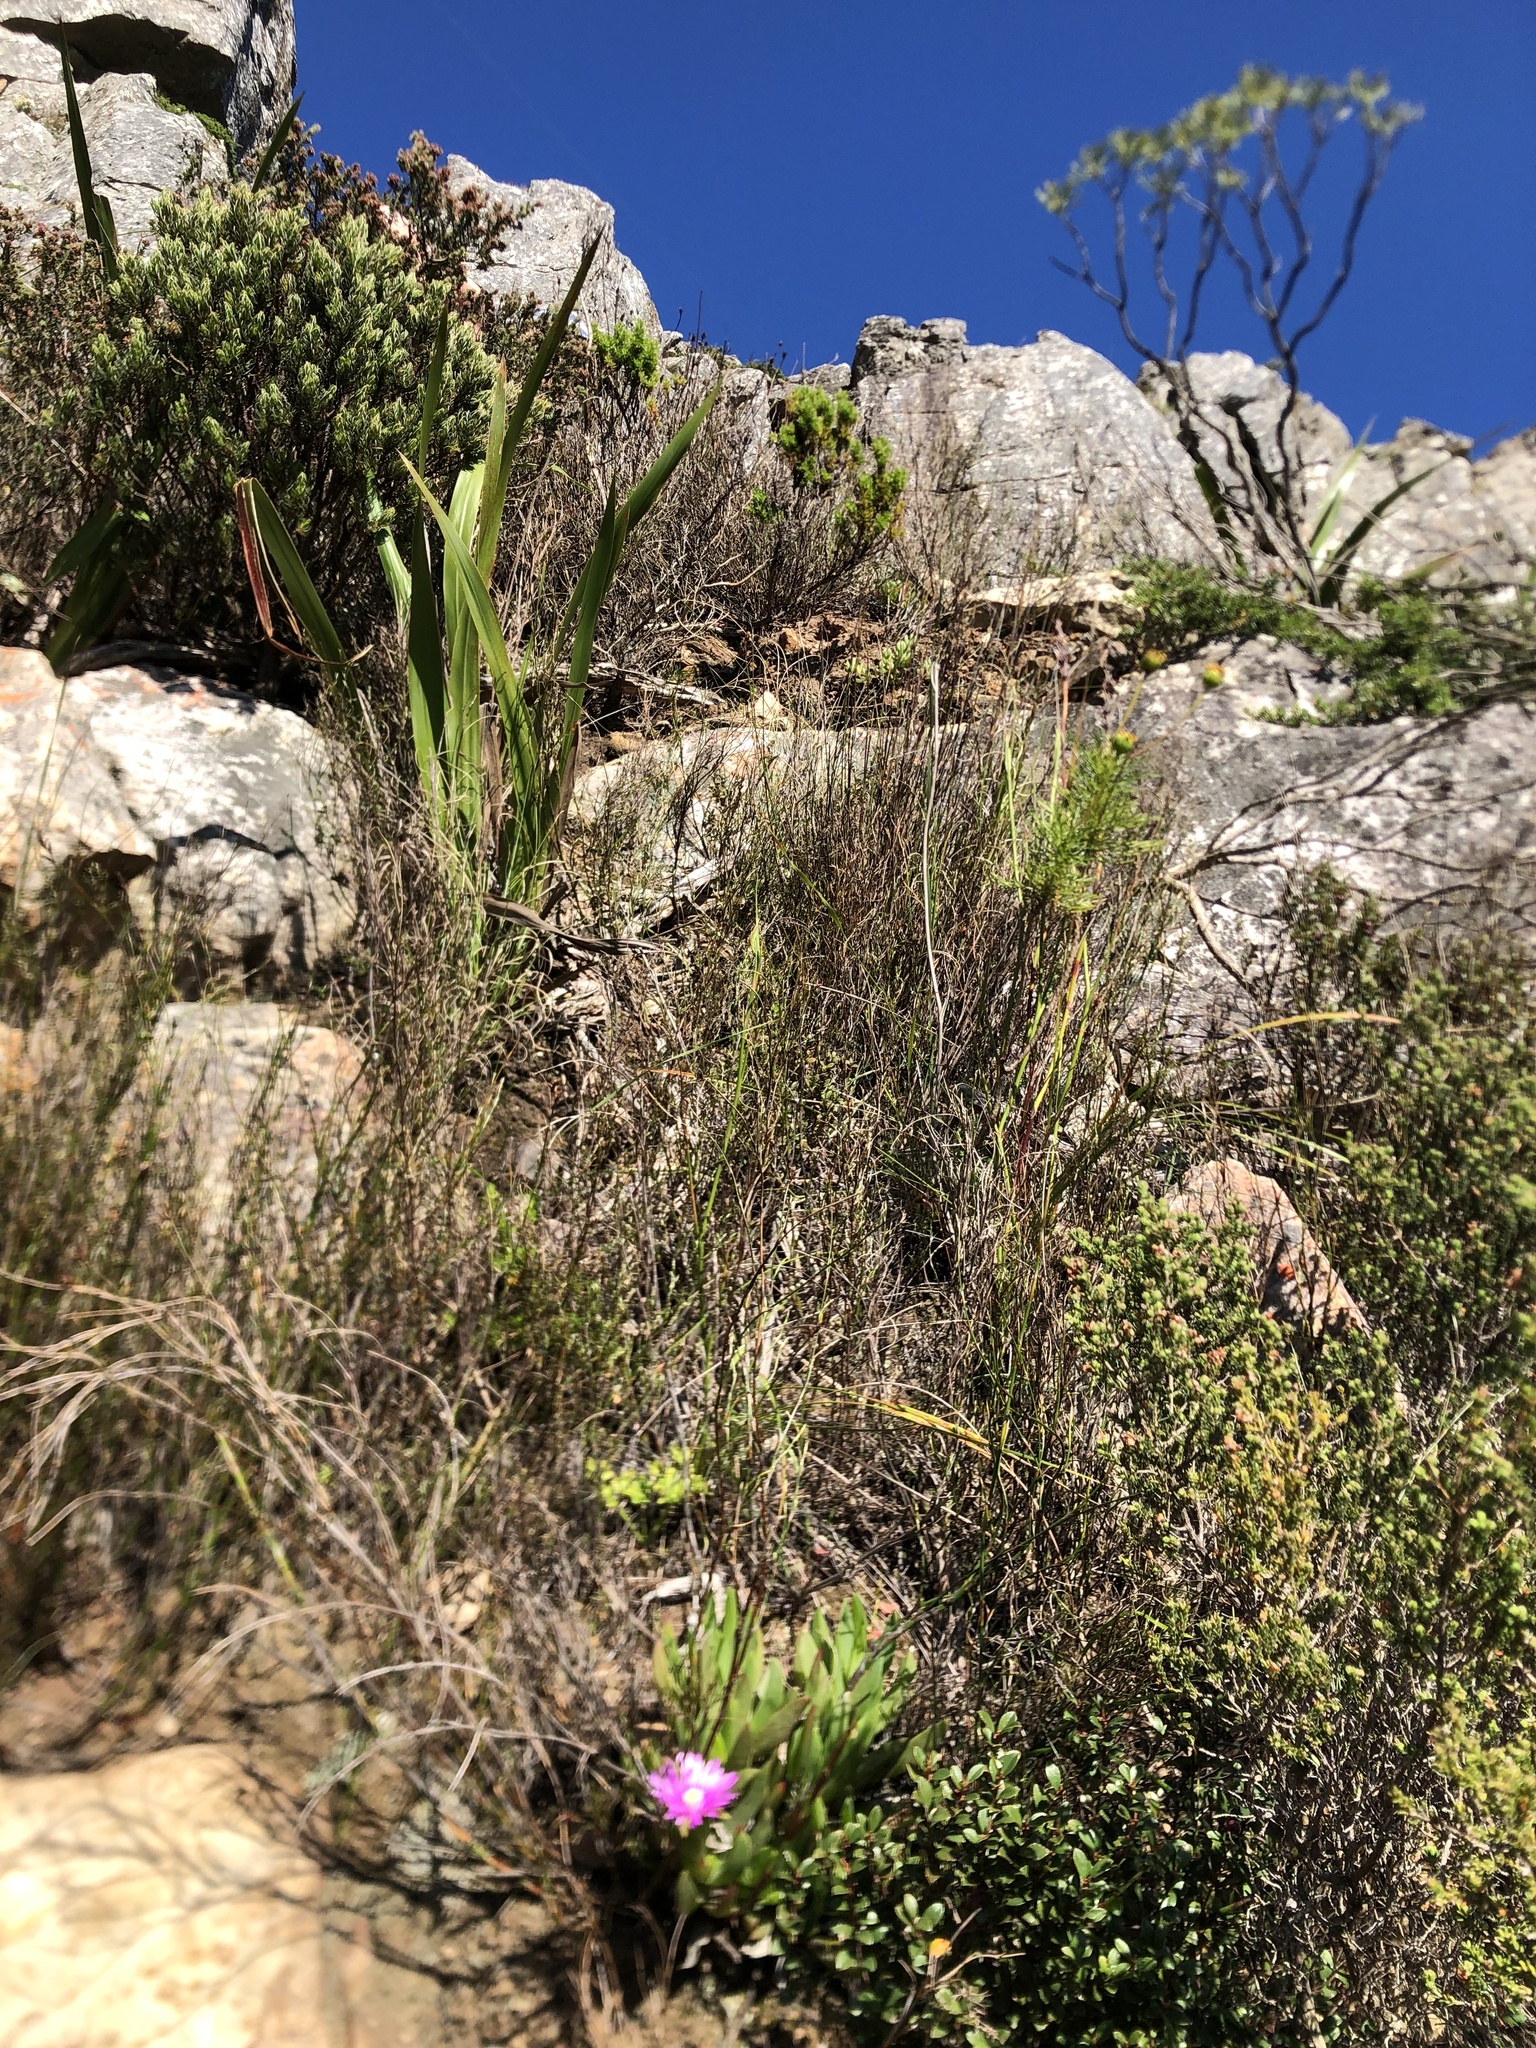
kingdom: Plantae
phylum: Tracheophyta
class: Magnoliopsida
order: Caryophyllales
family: Aizoaceae
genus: Ruschia
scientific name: Ruschia rubricaulis
